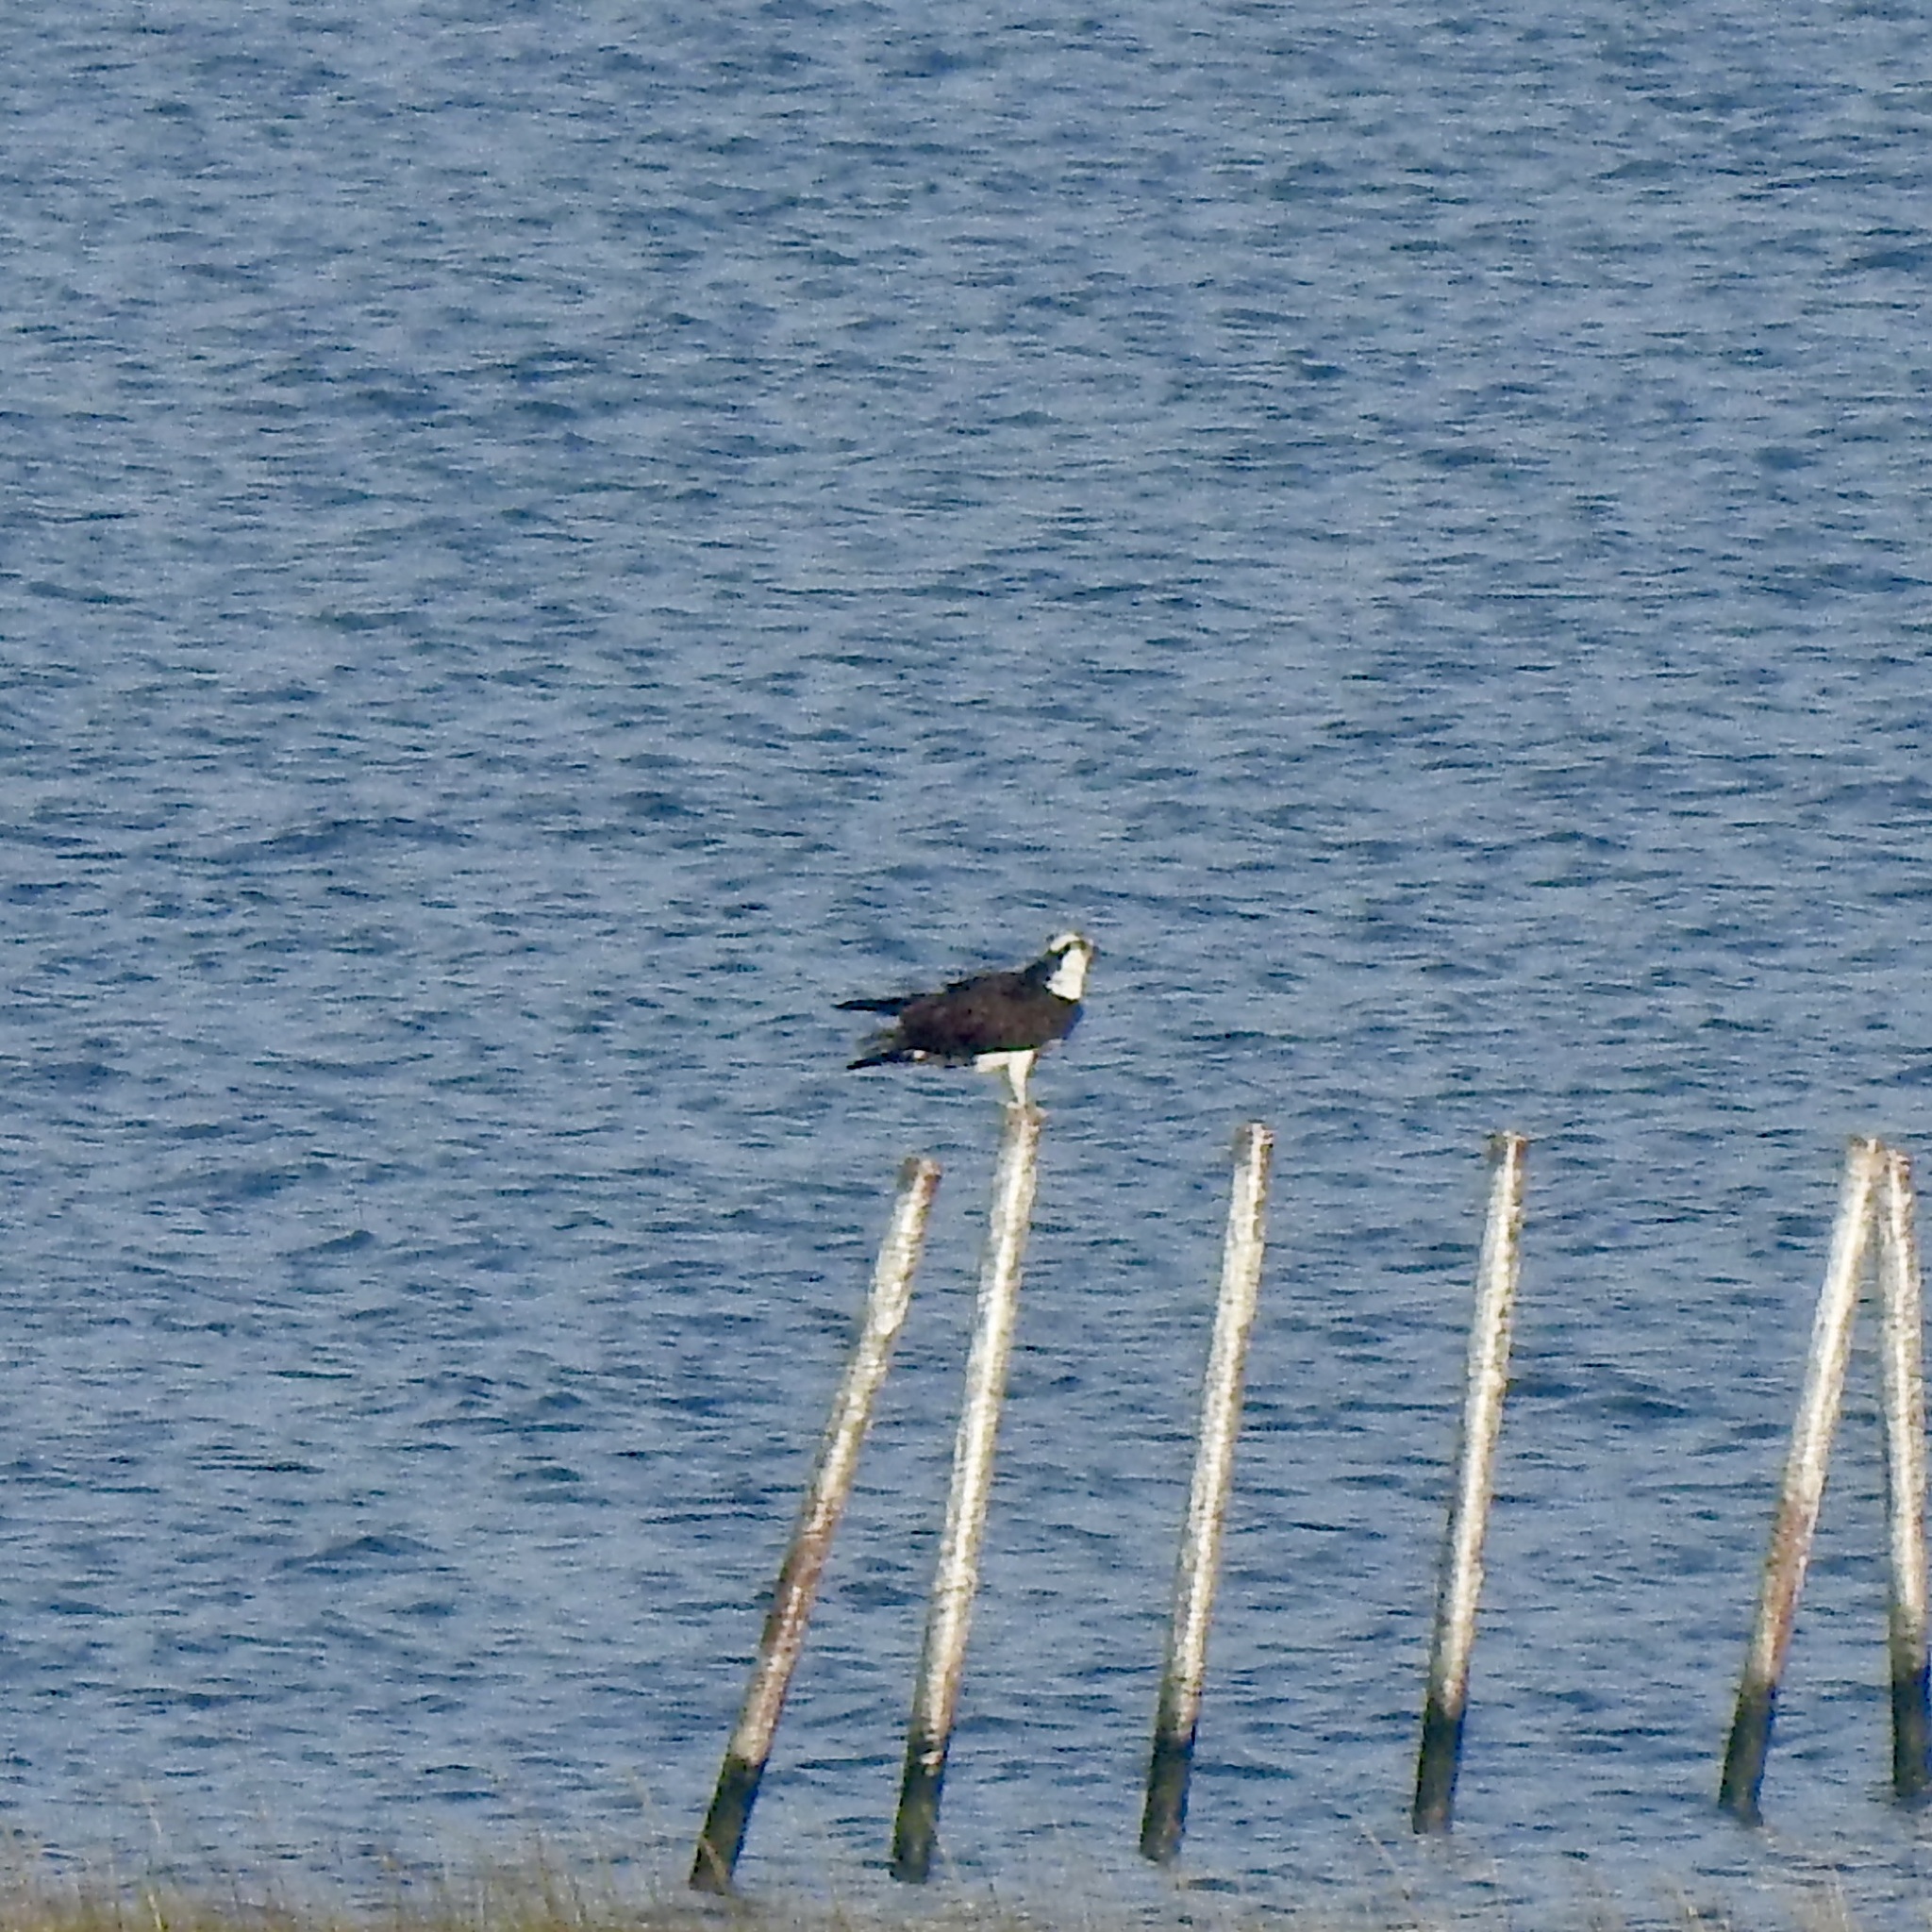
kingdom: Animalia
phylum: Chordata
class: Aves
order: Accipitriformes
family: Pandionidae
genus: Pandion
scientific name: Pandion haliaetus
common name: Osprey
